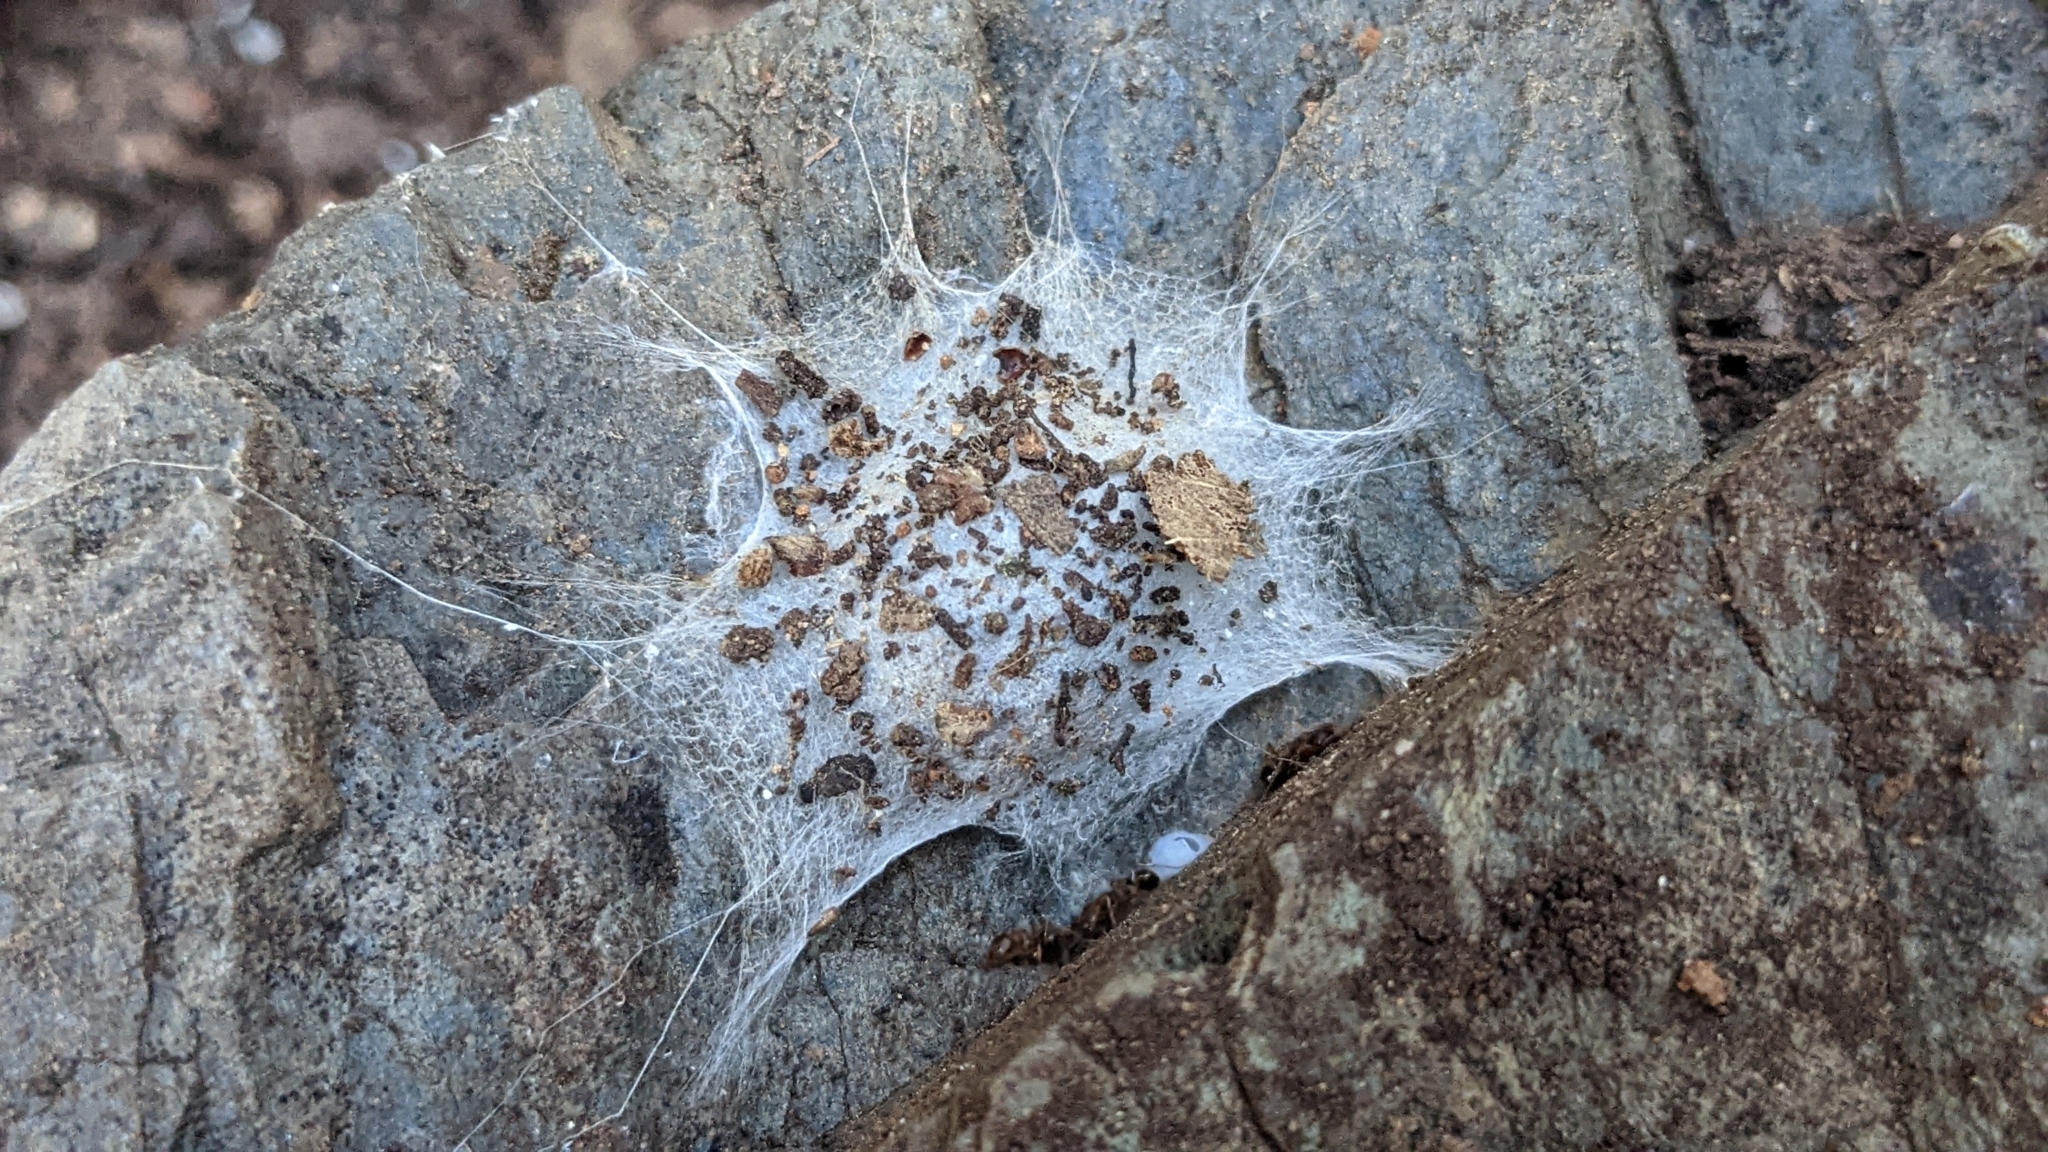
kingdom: Animalia
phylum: Arthropoda
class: Arachnida
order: Araneae
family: Oecobiidae
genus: Uroctea
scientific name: Uroctea durandi
